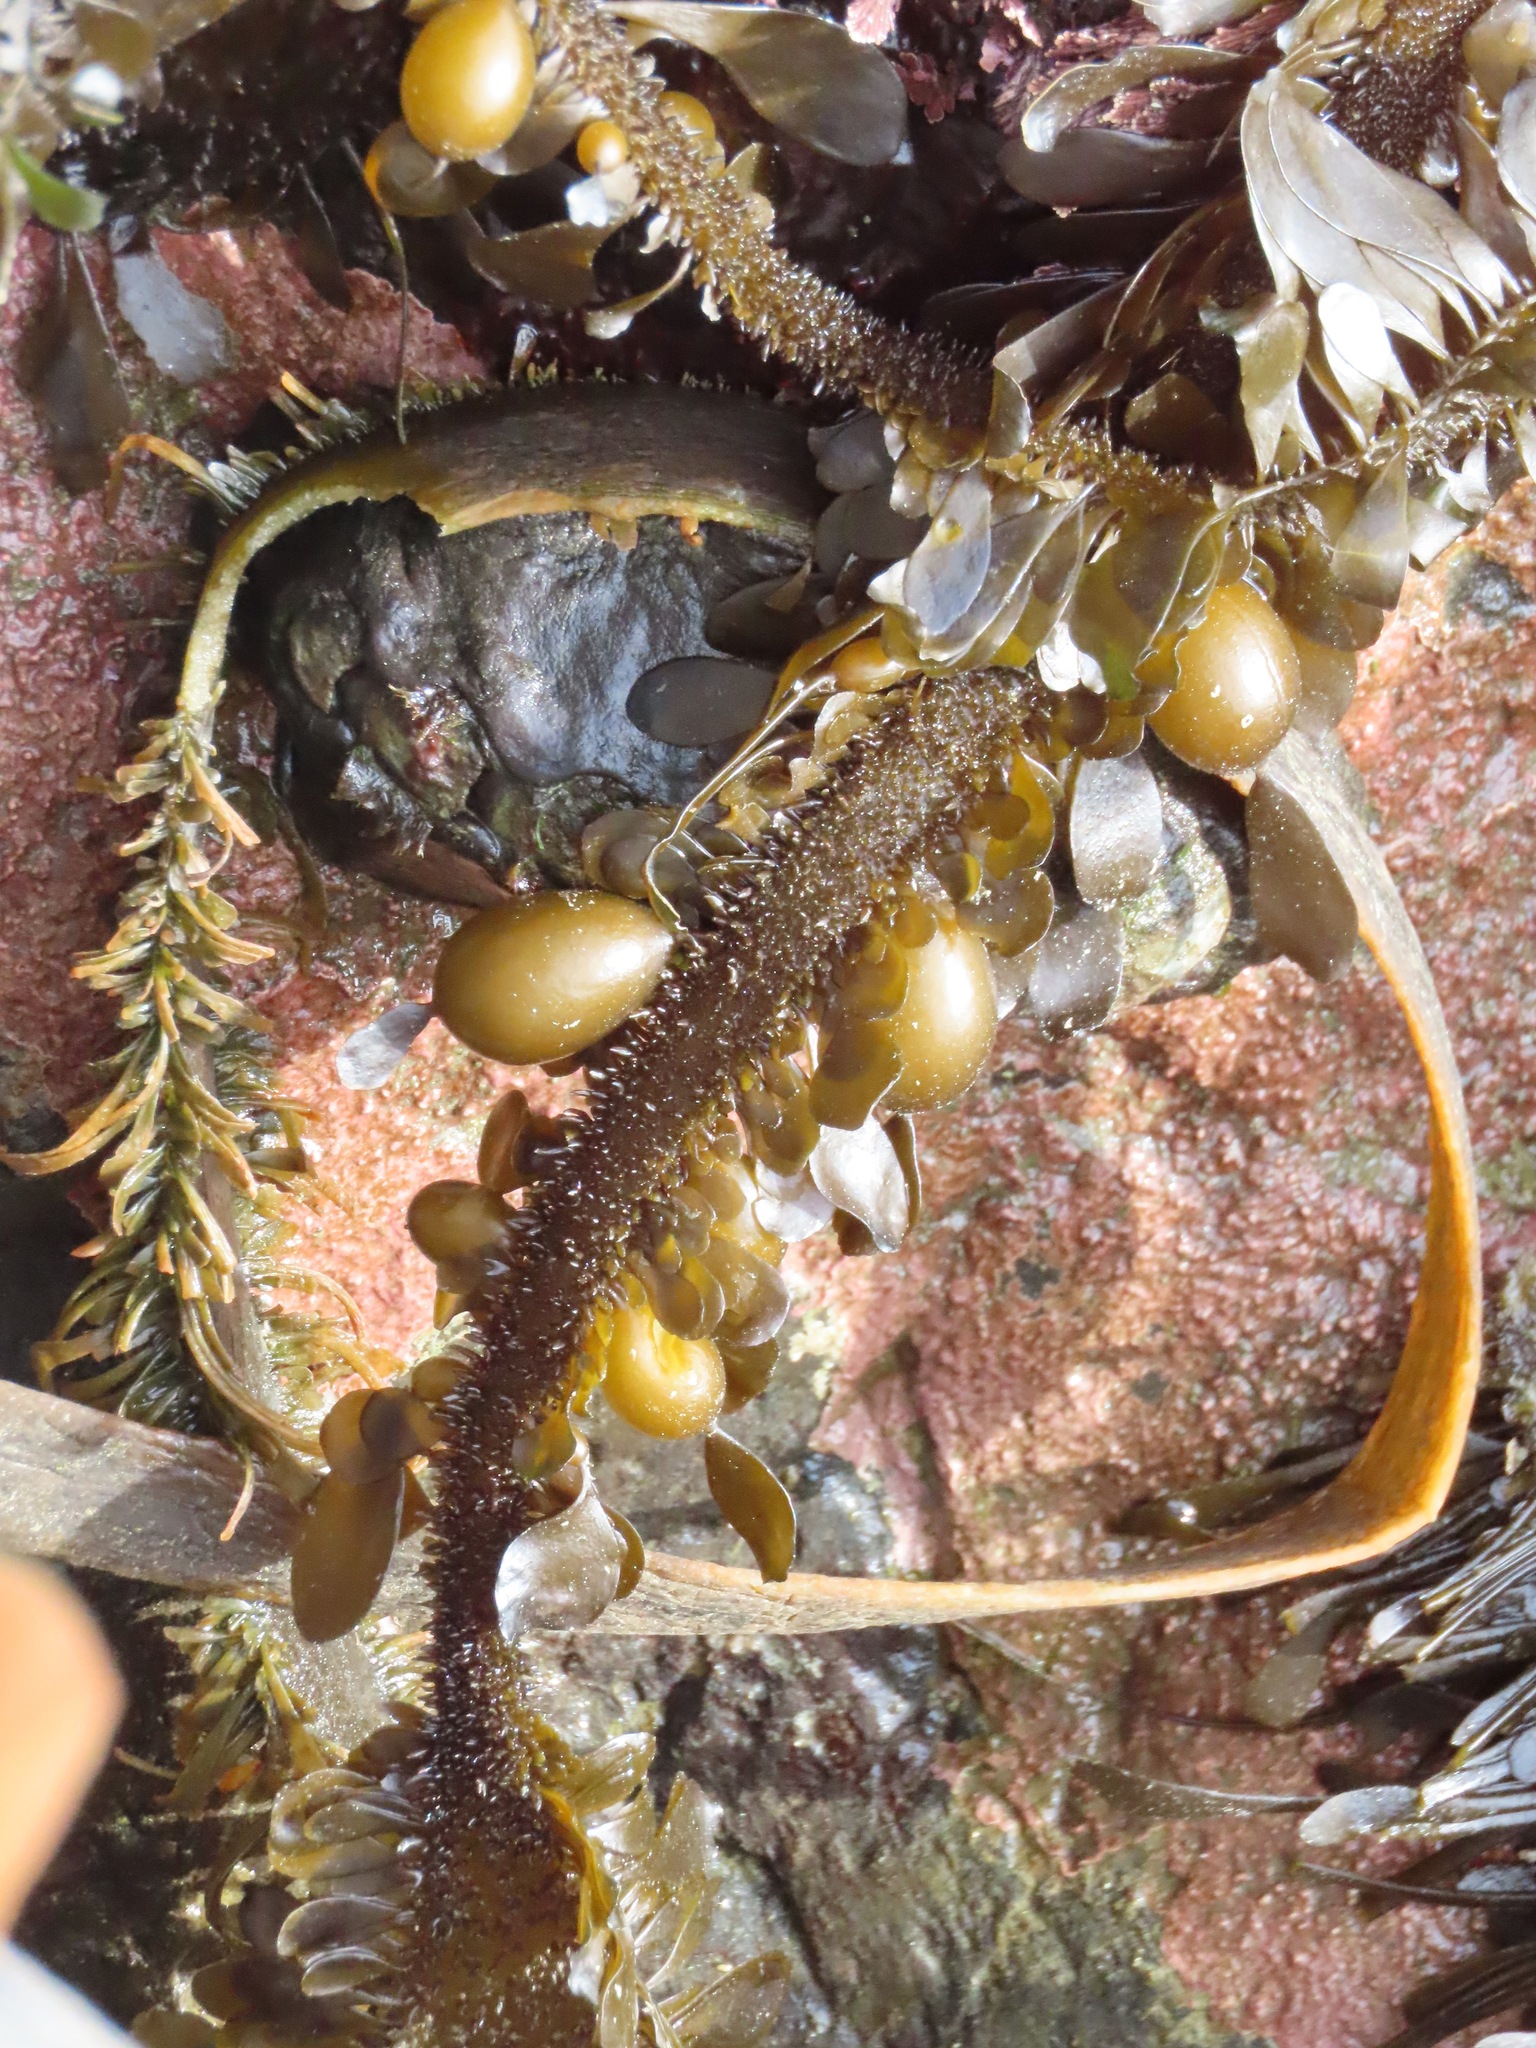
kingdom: Chromista
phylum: Ochrophyta
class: Phaeophyceae
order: Laminariales
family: Lessoniaceae
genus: Egregia
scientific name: Egregia menziesii
